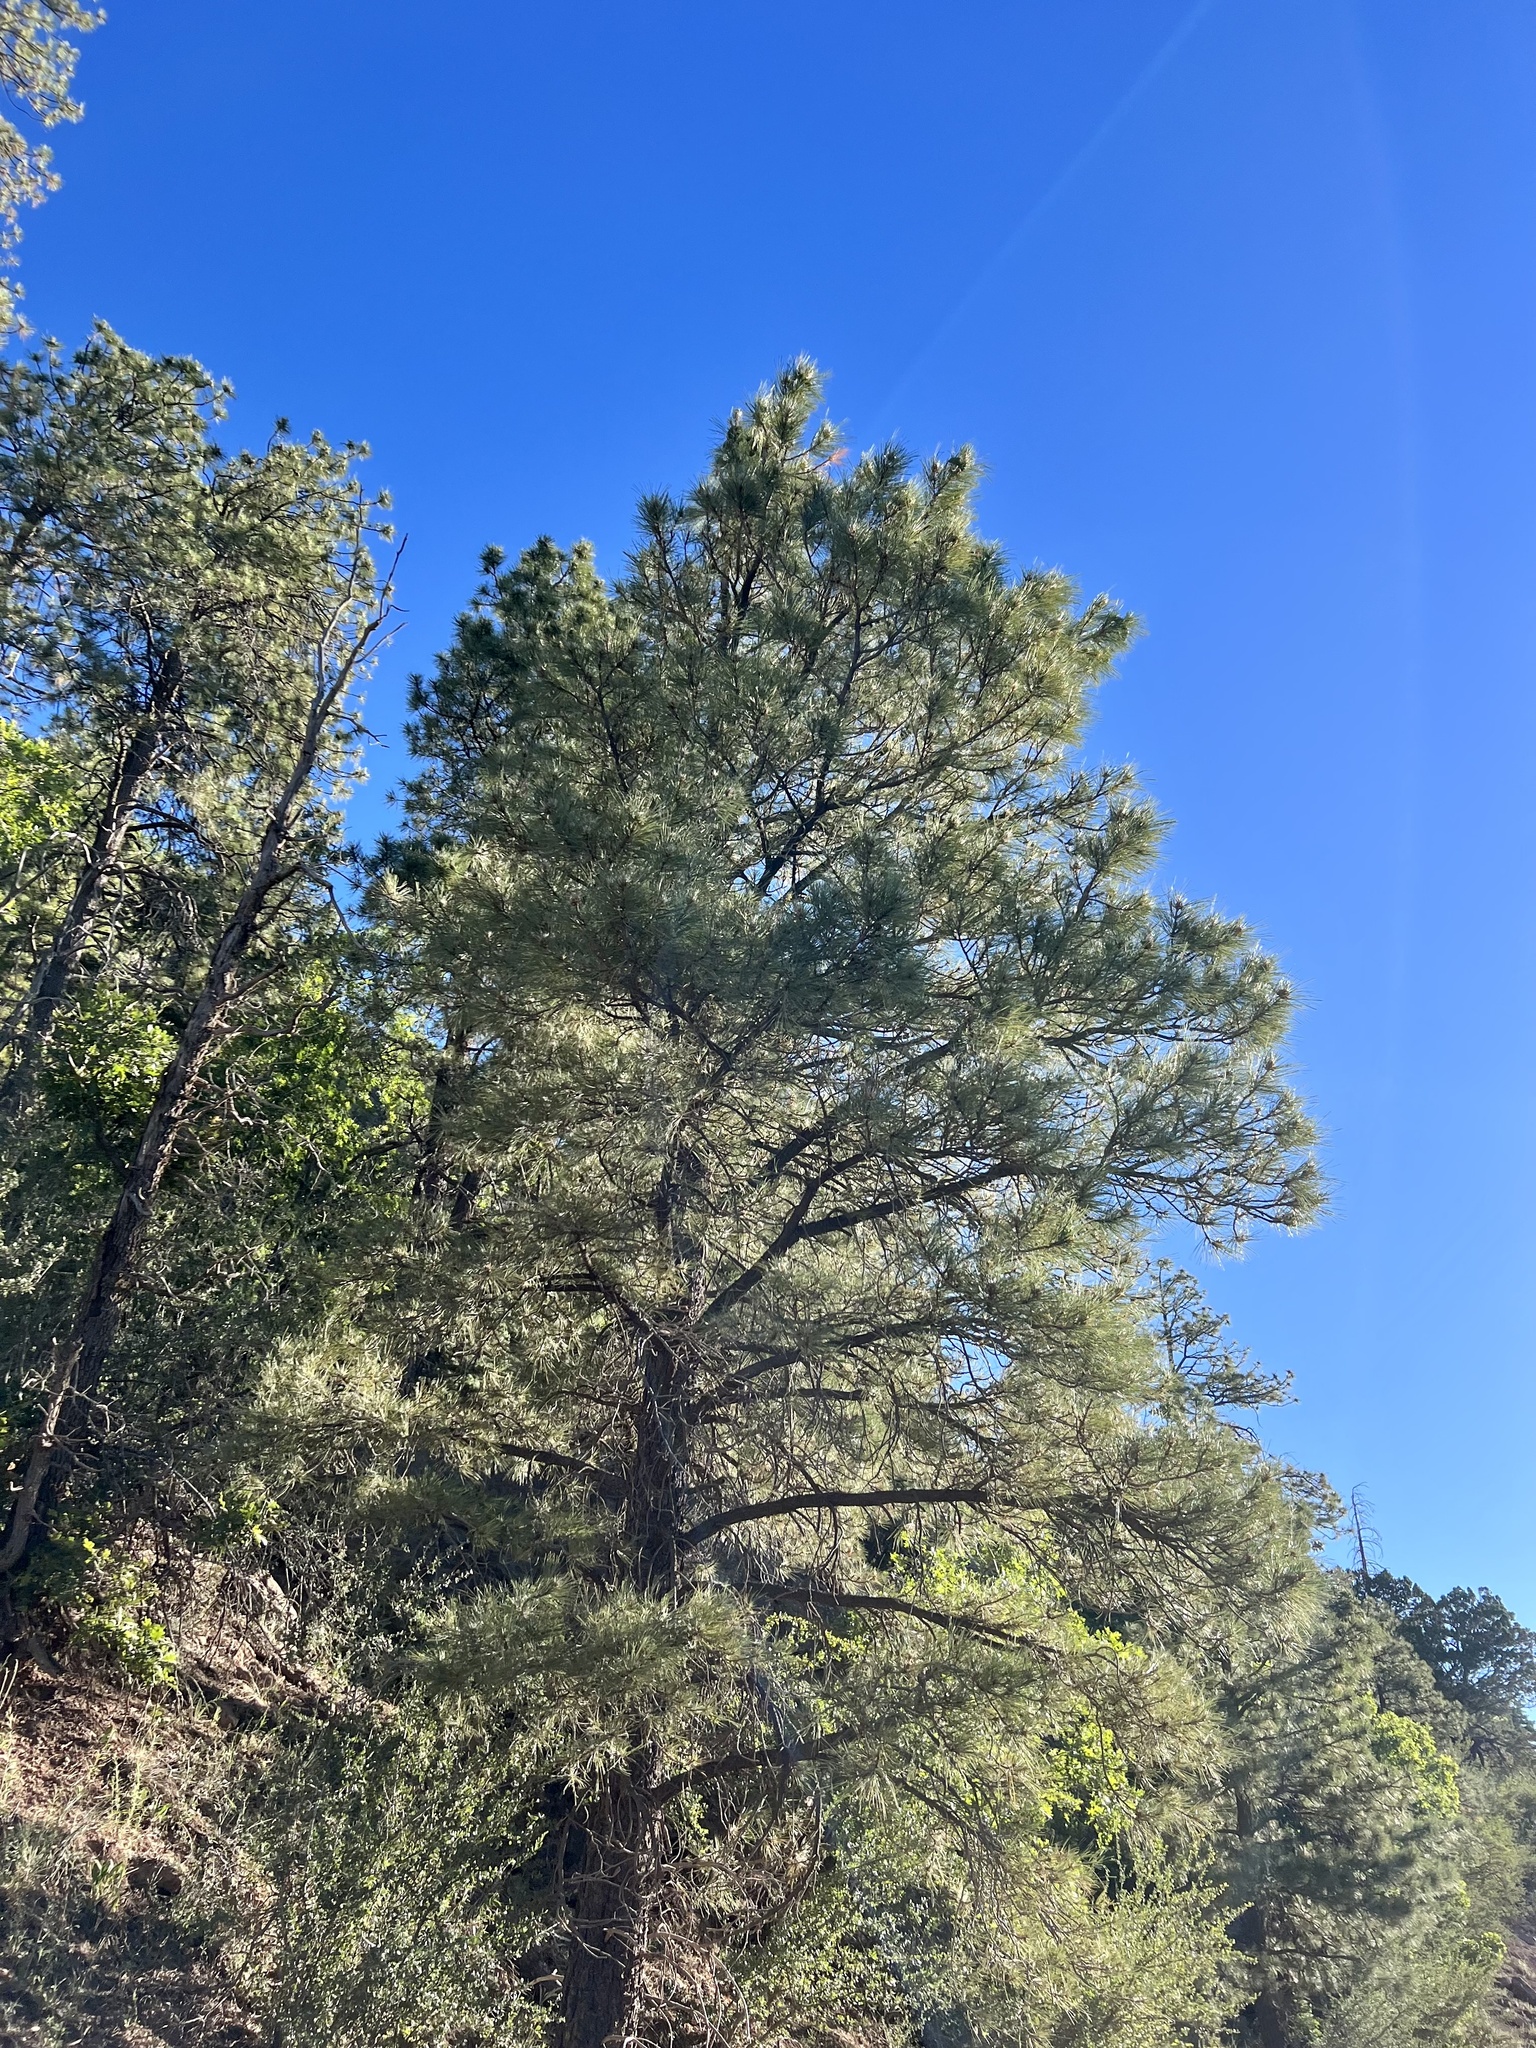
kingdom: Plantae
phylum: Tracheophyta
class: Pinopsida
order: Pinales
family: Pinaceae
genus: Pinus
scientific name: Pinus ponderosa
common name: Western yellow-pine
